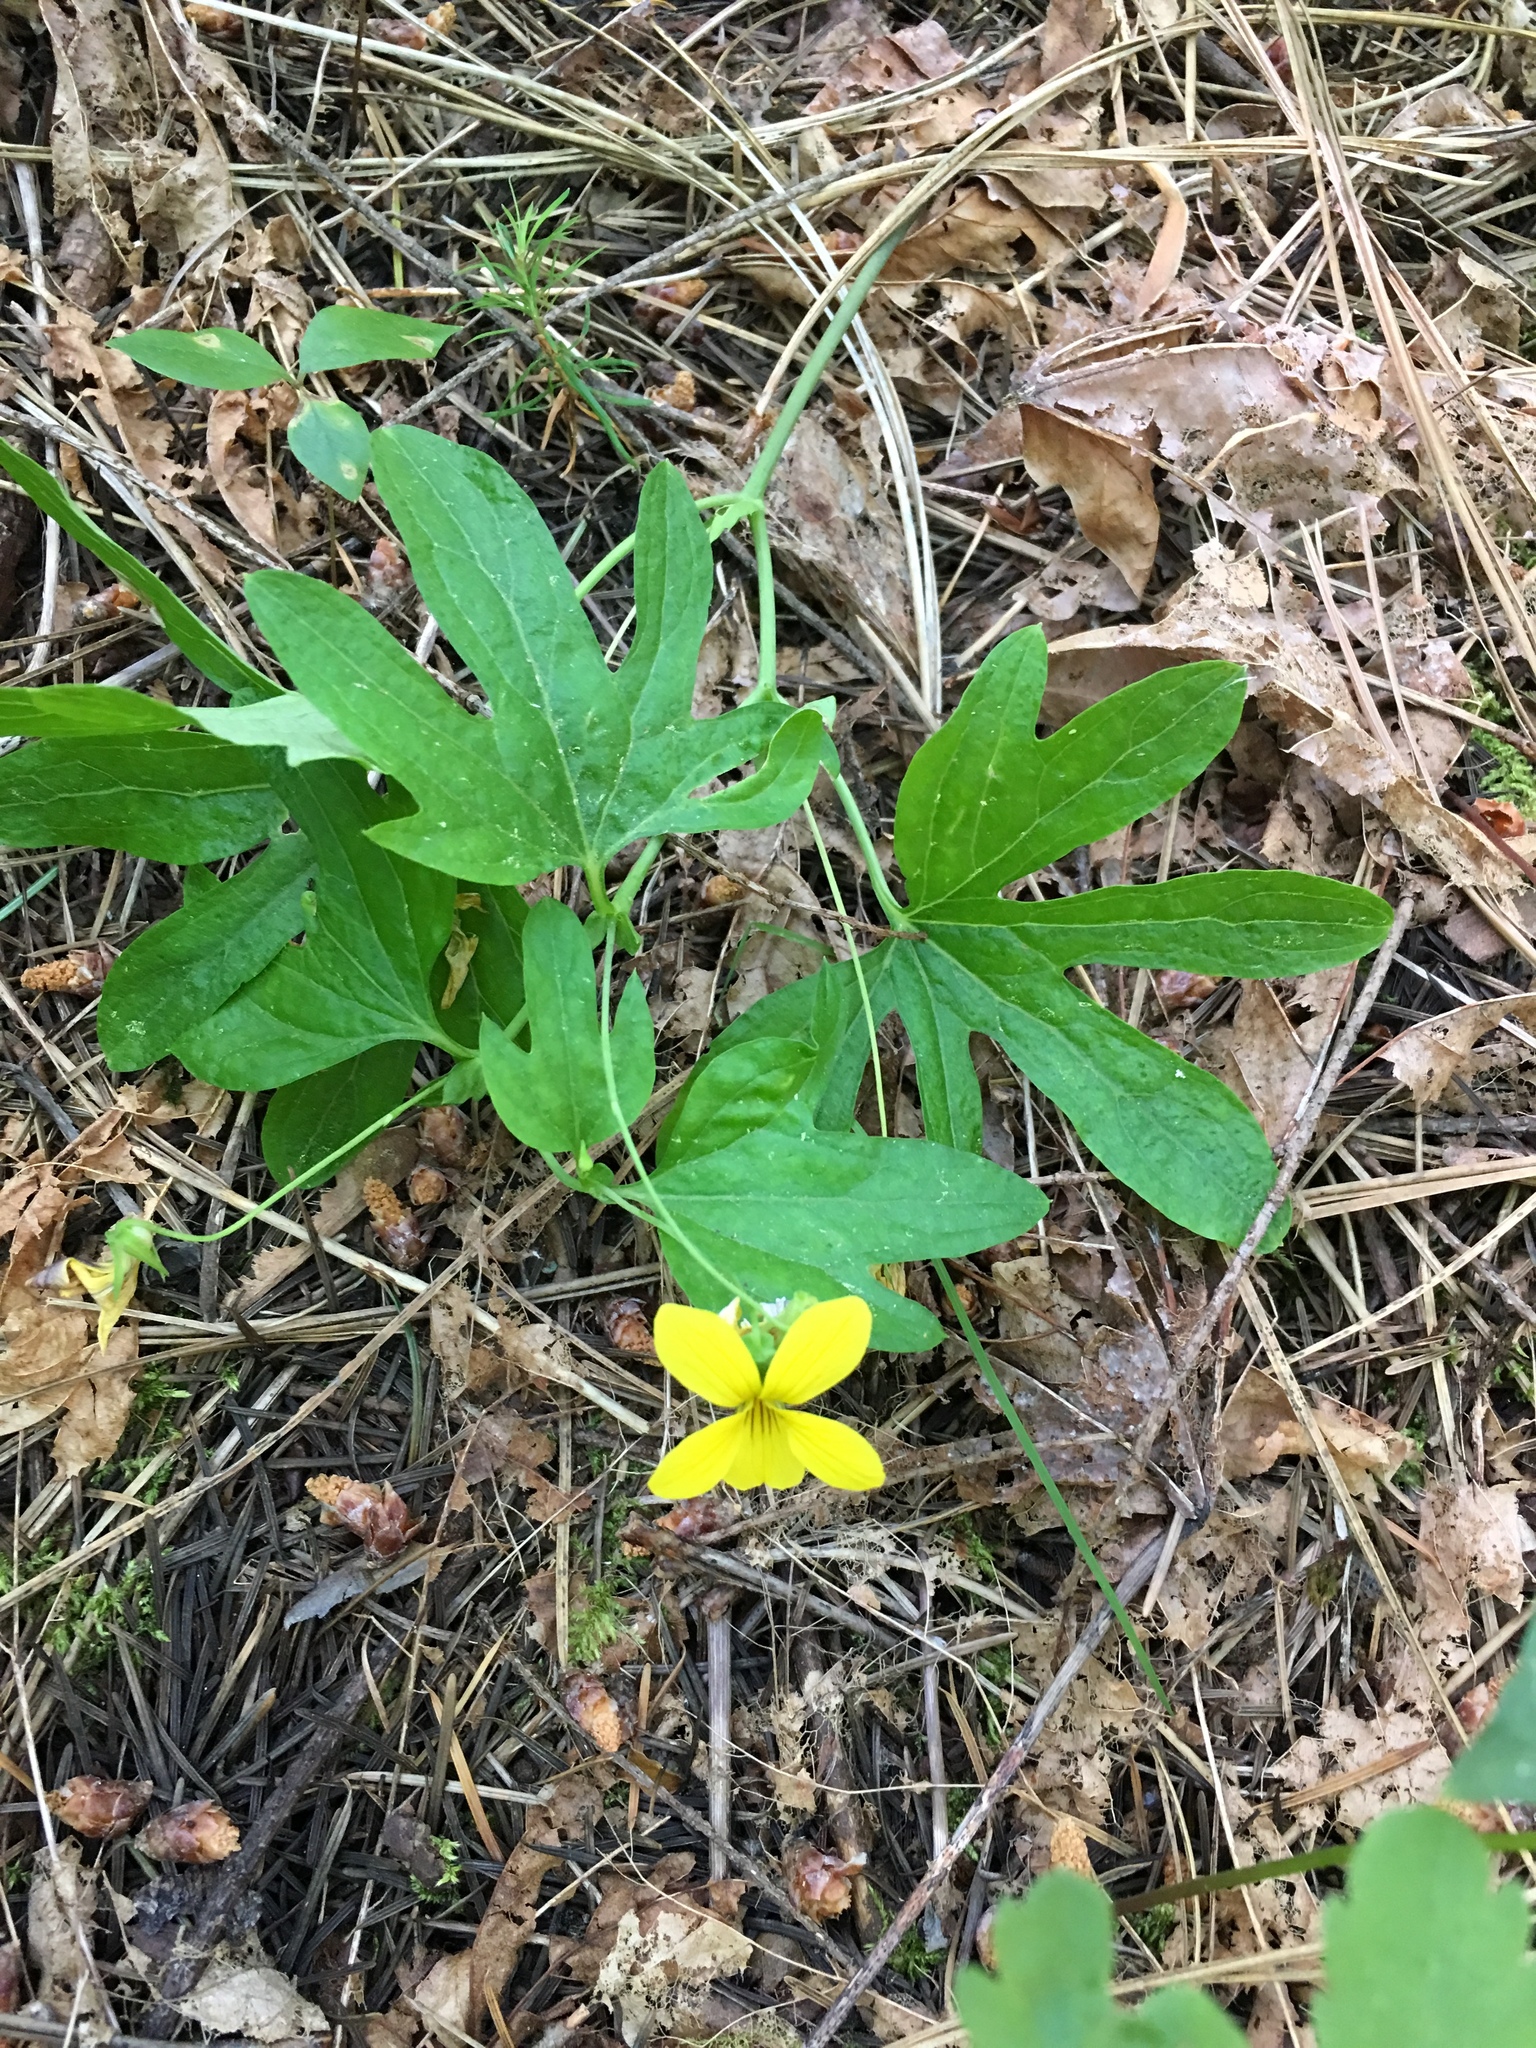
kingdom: Plantae
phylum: Tracheophyta
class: Magnoliopsida
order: Malpighiales
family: Violaceae
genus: Viola
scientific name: Viola lobata
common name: Pine violet
